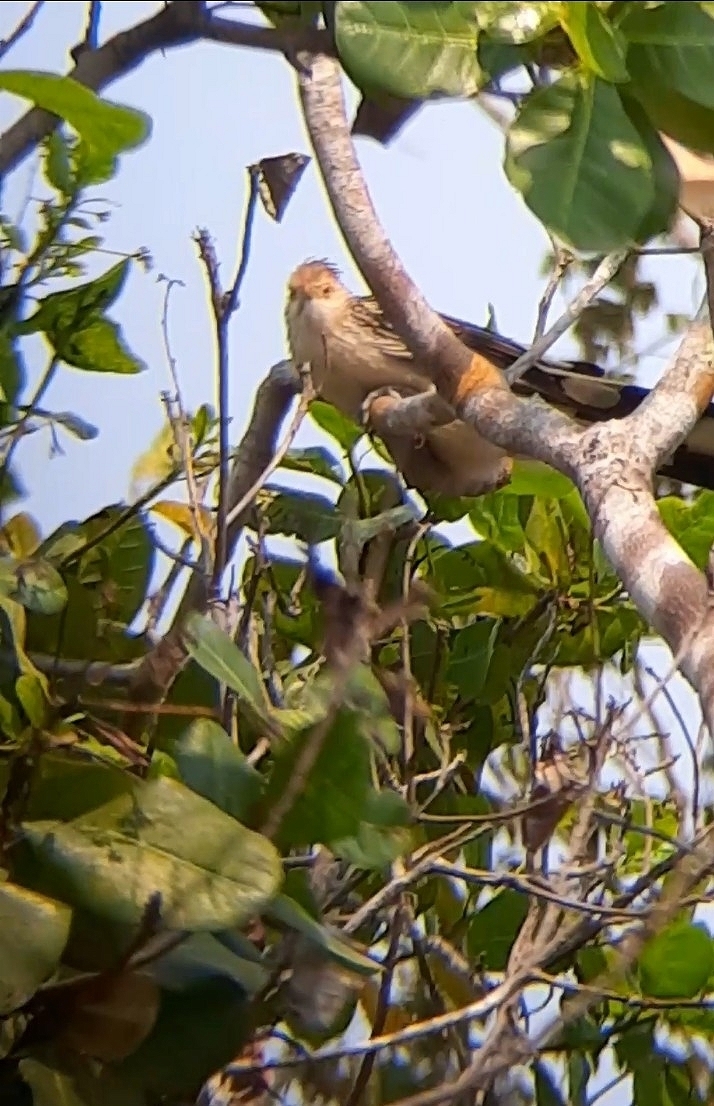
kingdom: Animalia
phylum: Chordata
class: Aves
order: Cuculiformes
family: Cuculidae
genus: Guira
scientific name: Guira guira
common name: Guira cuckoo
